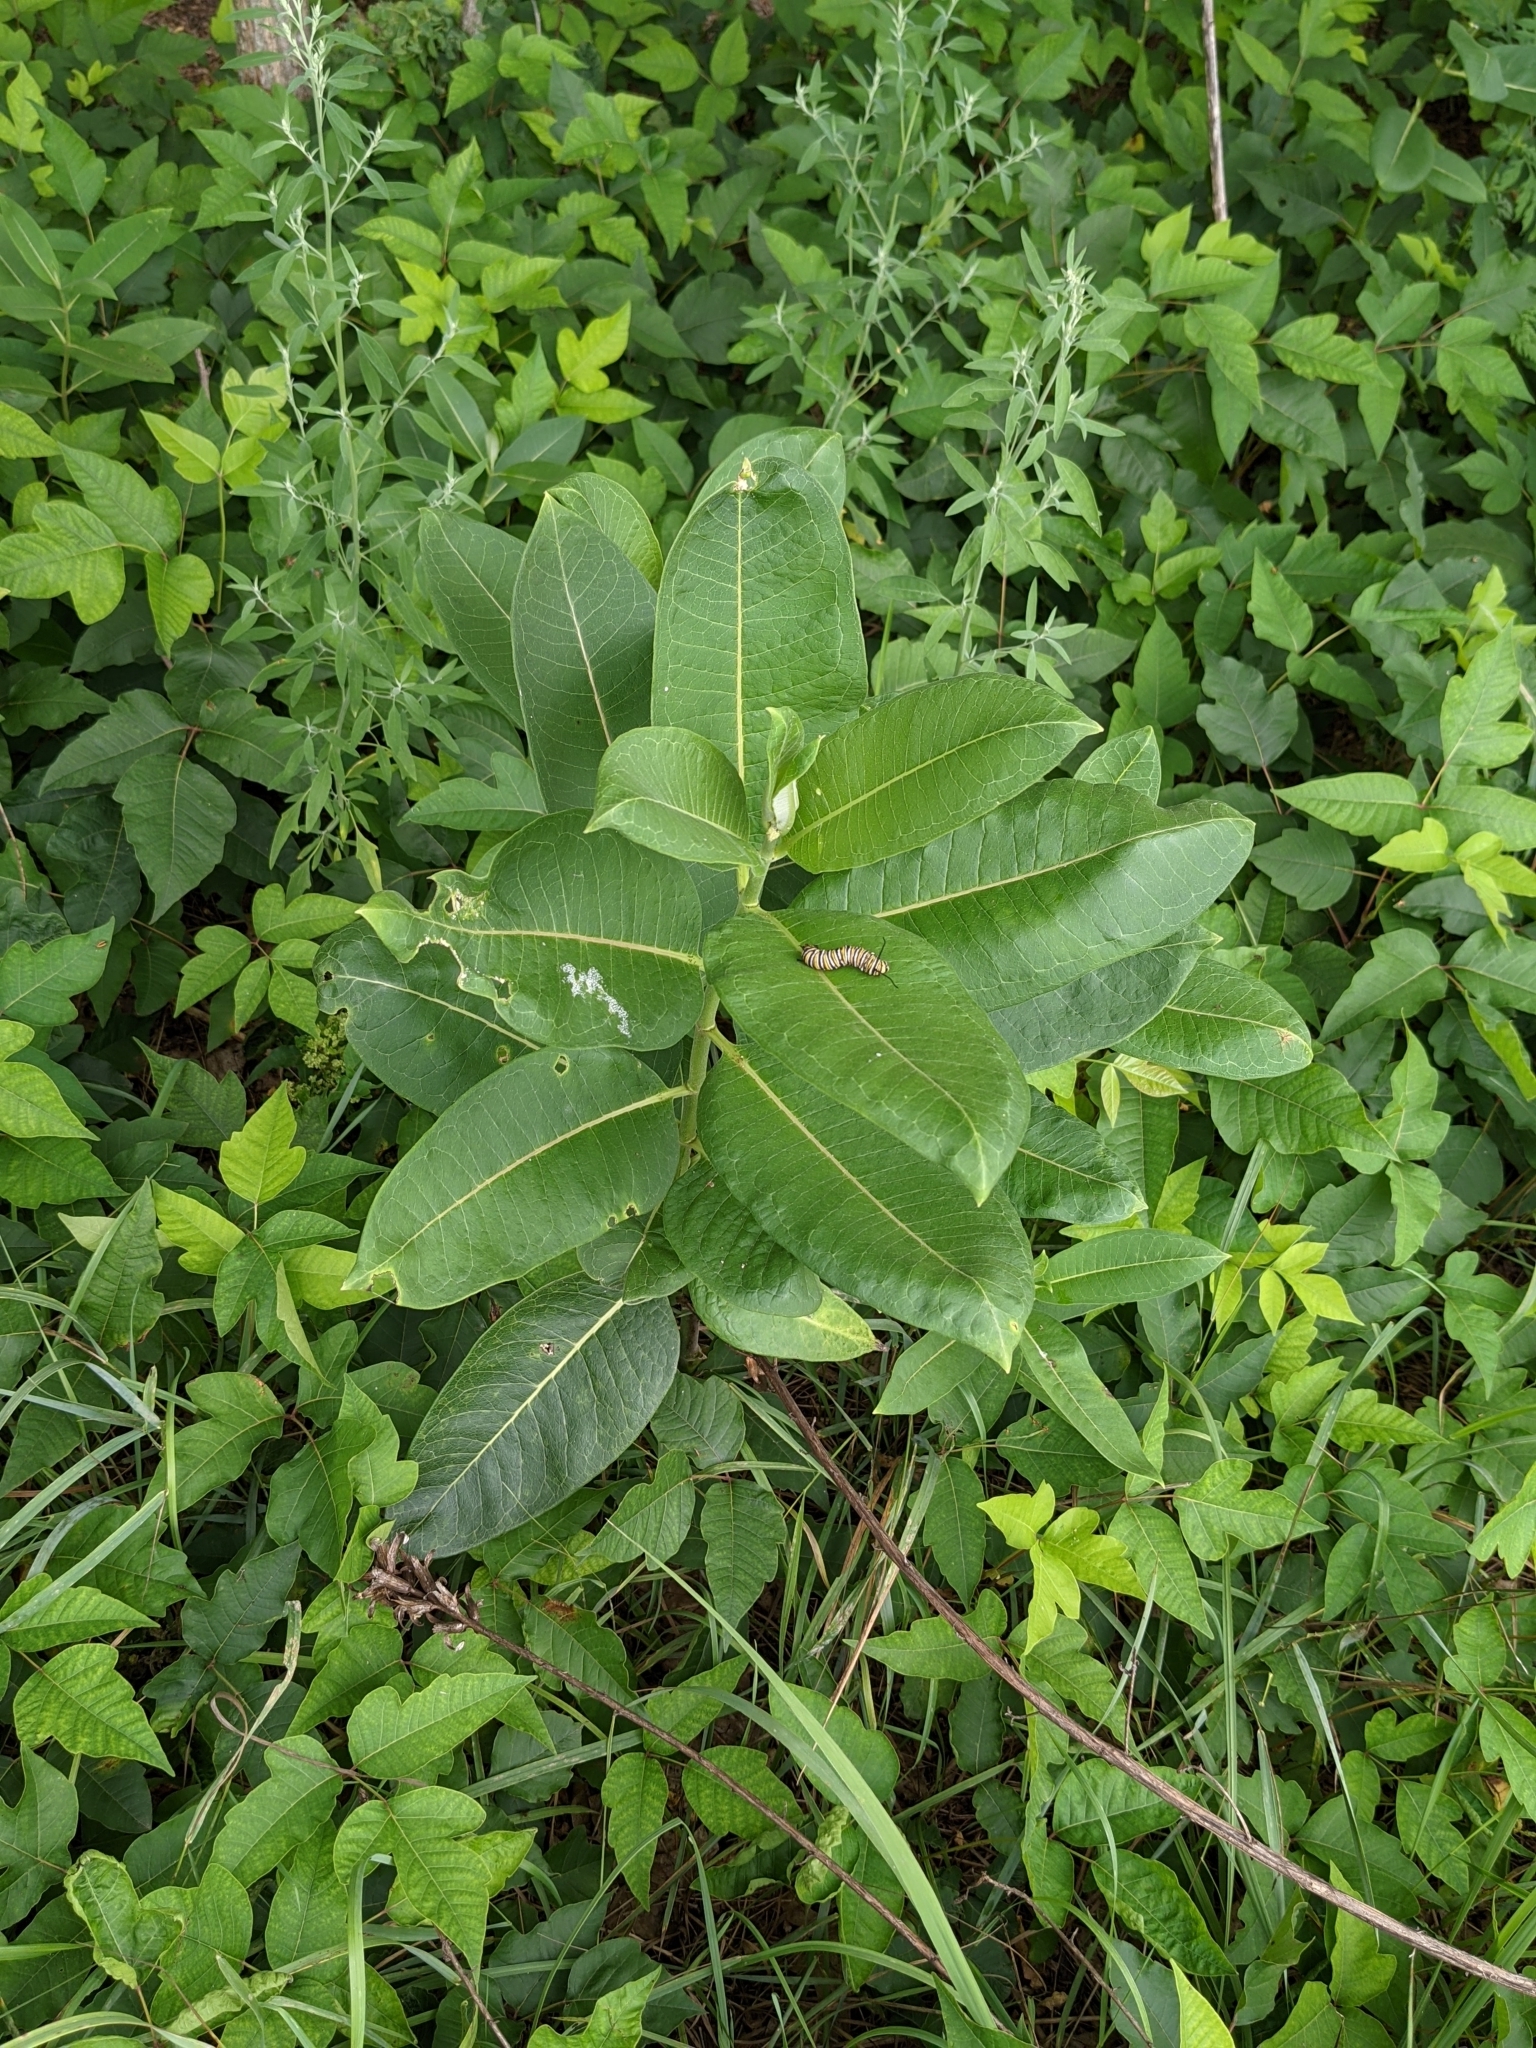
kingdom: Plantae
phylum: Tracheophyta
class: Magnoliopsida
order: Gentianales
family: Apocynaceae
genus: Asclepias
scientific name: Asclepias syriaca
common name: Common milkweed
